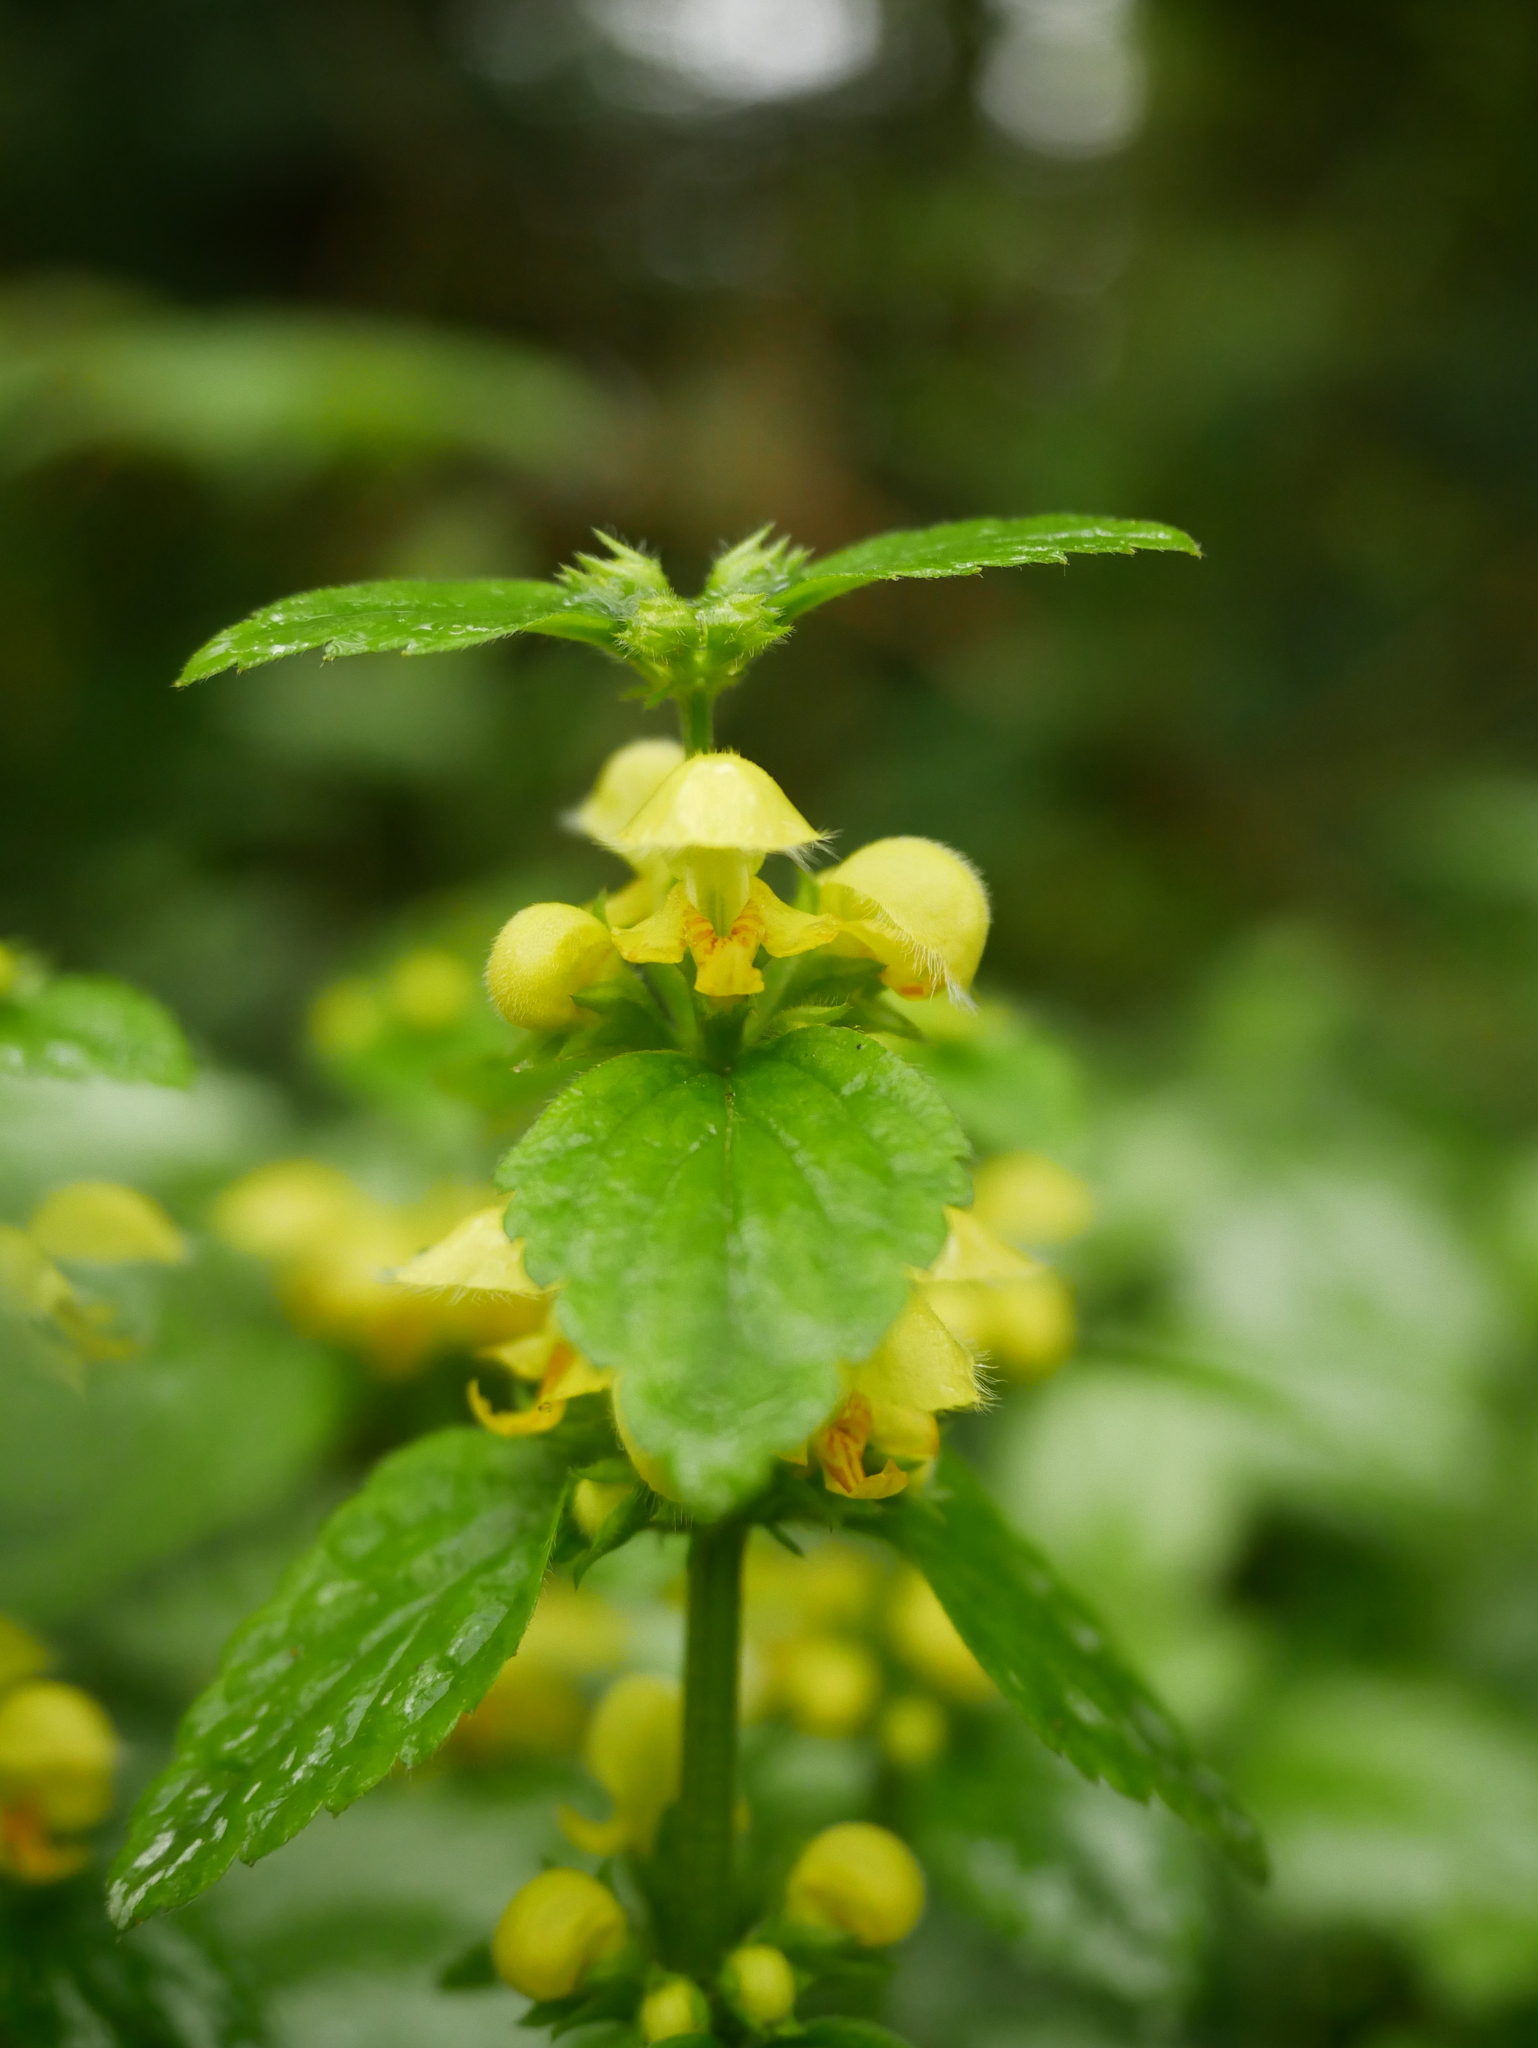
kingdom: Plantae
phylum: Tracheophyta
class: Magnoliopsida
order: Lamiales
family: Lamiaceae
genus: Lamium
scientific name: Lamium galeobdolon
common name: Yellow archangel
